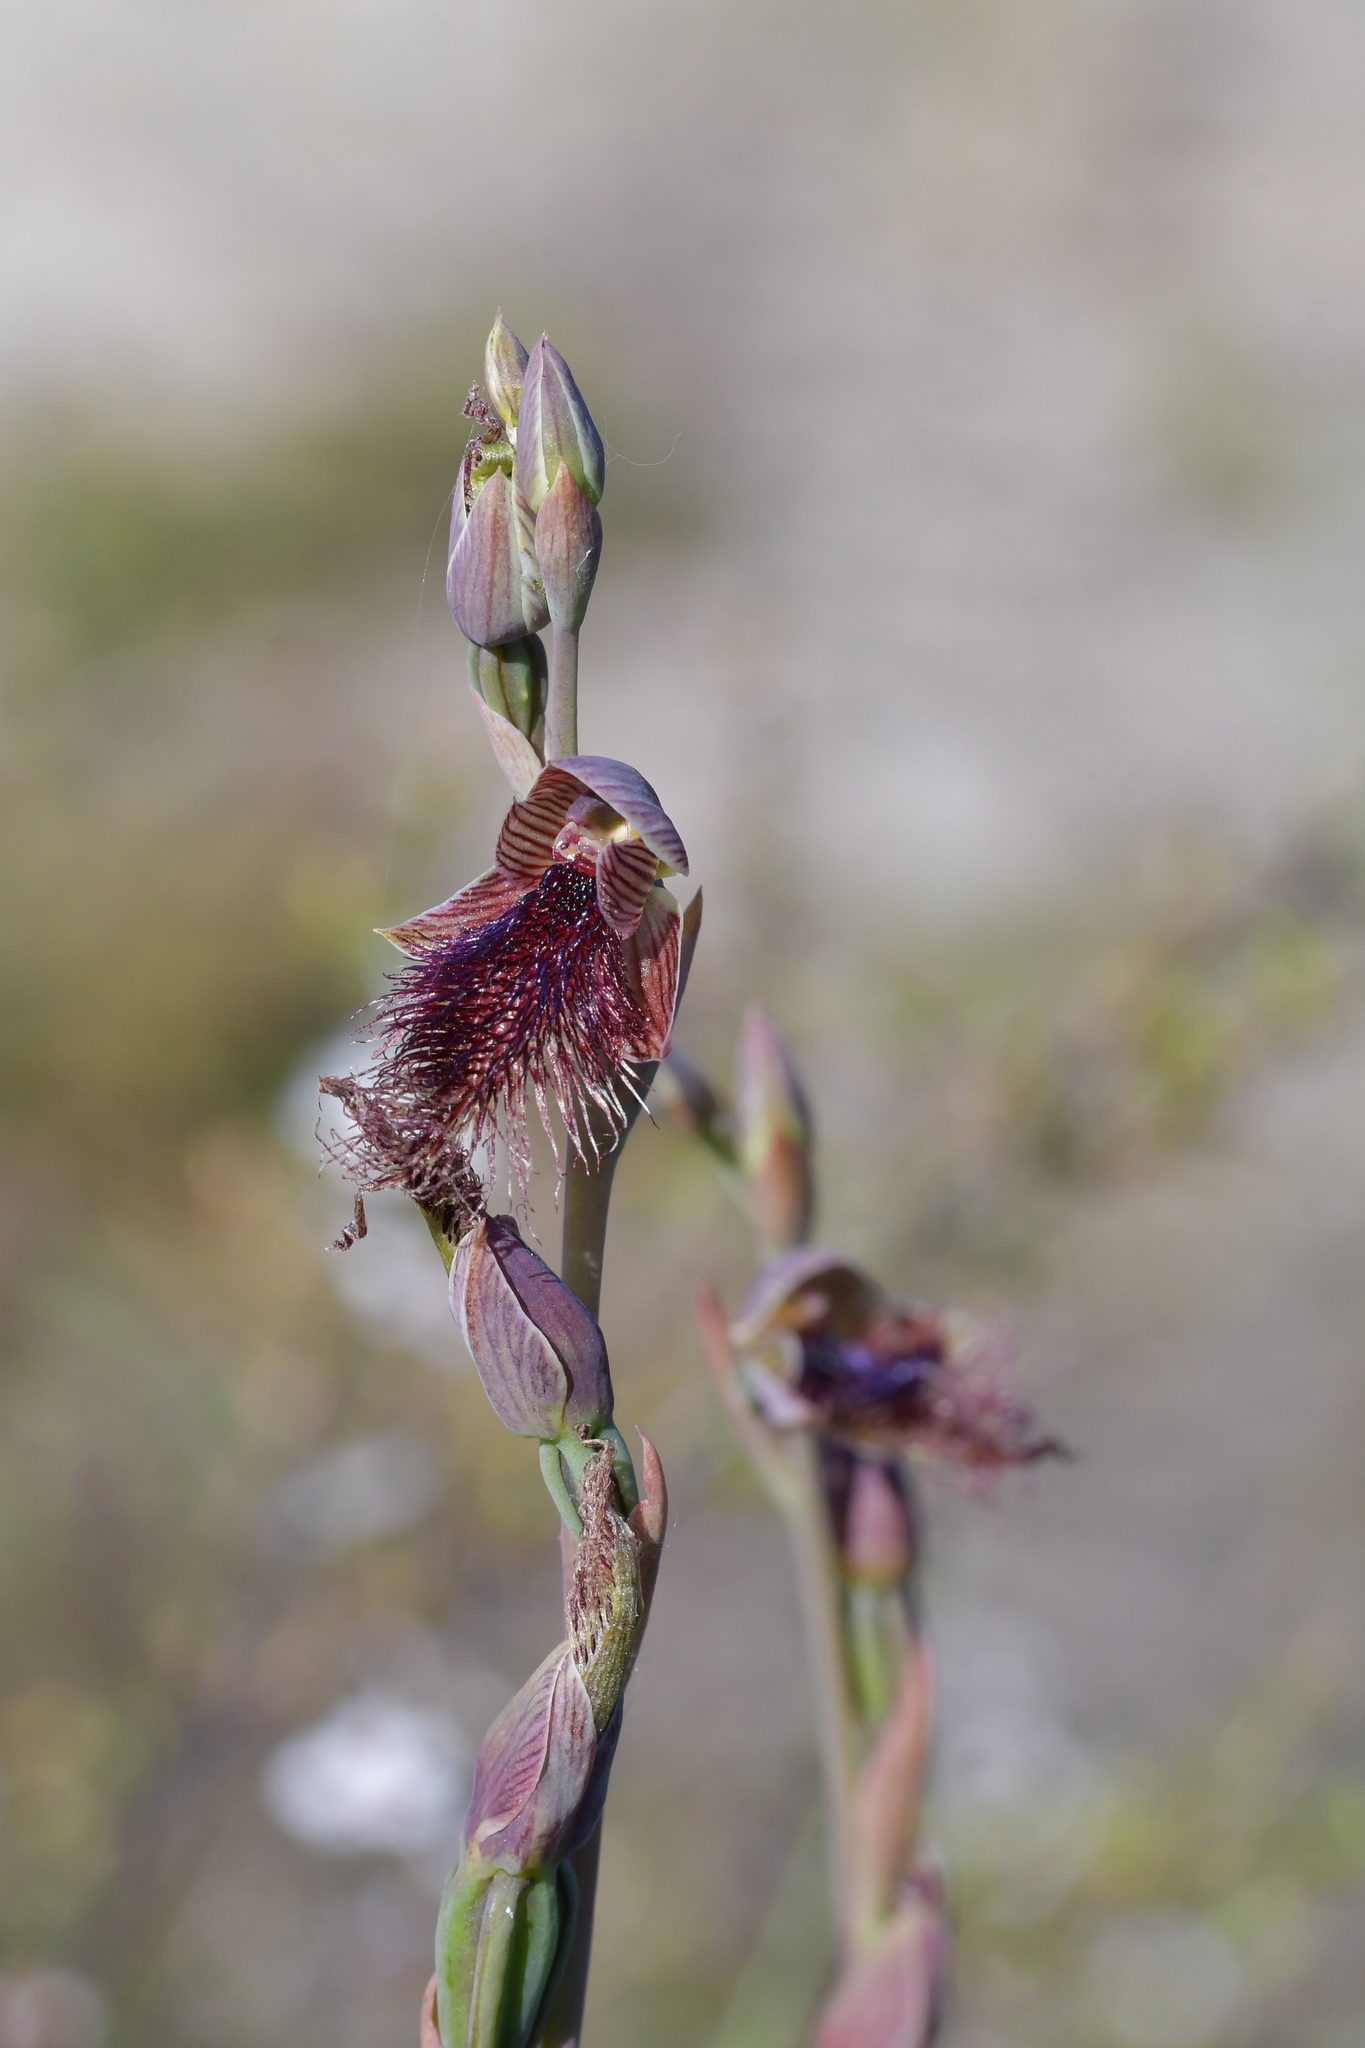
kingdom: Plantae
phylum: Tracheophyta
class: Liliopsida
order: Asparagales
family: Orchidaceae
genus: Calochilus
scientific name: Calochilus robertsonii
